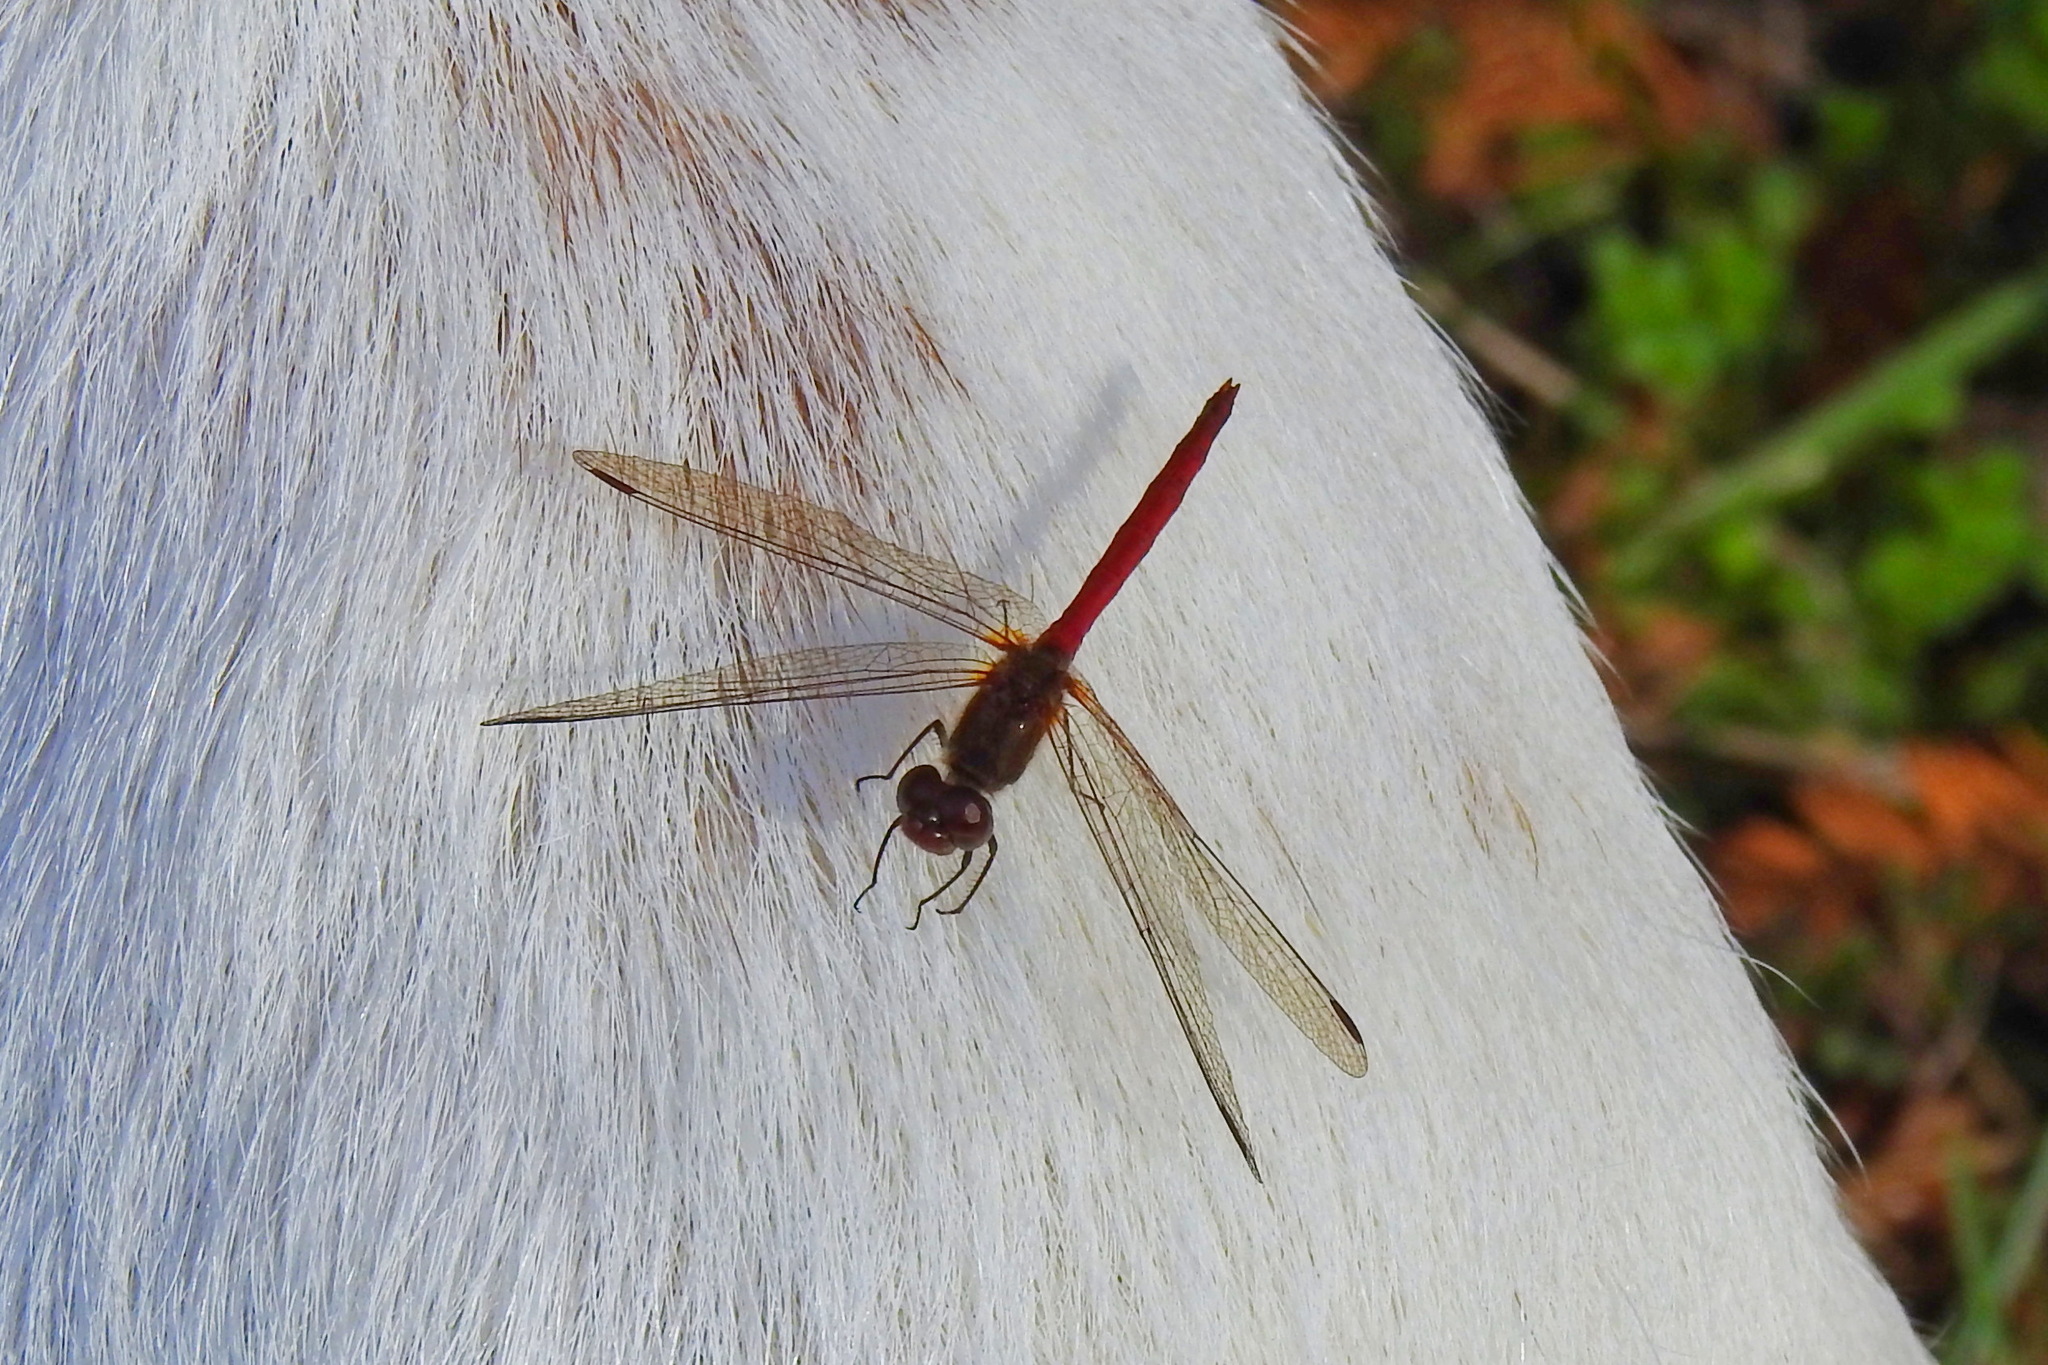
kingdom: Animalia
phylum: Arthropoda
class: Insecta
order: Odonata
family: Libellulidae
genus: Sympetrum
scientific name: Sympetrum vicinum
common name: Autumn meadowhawk
